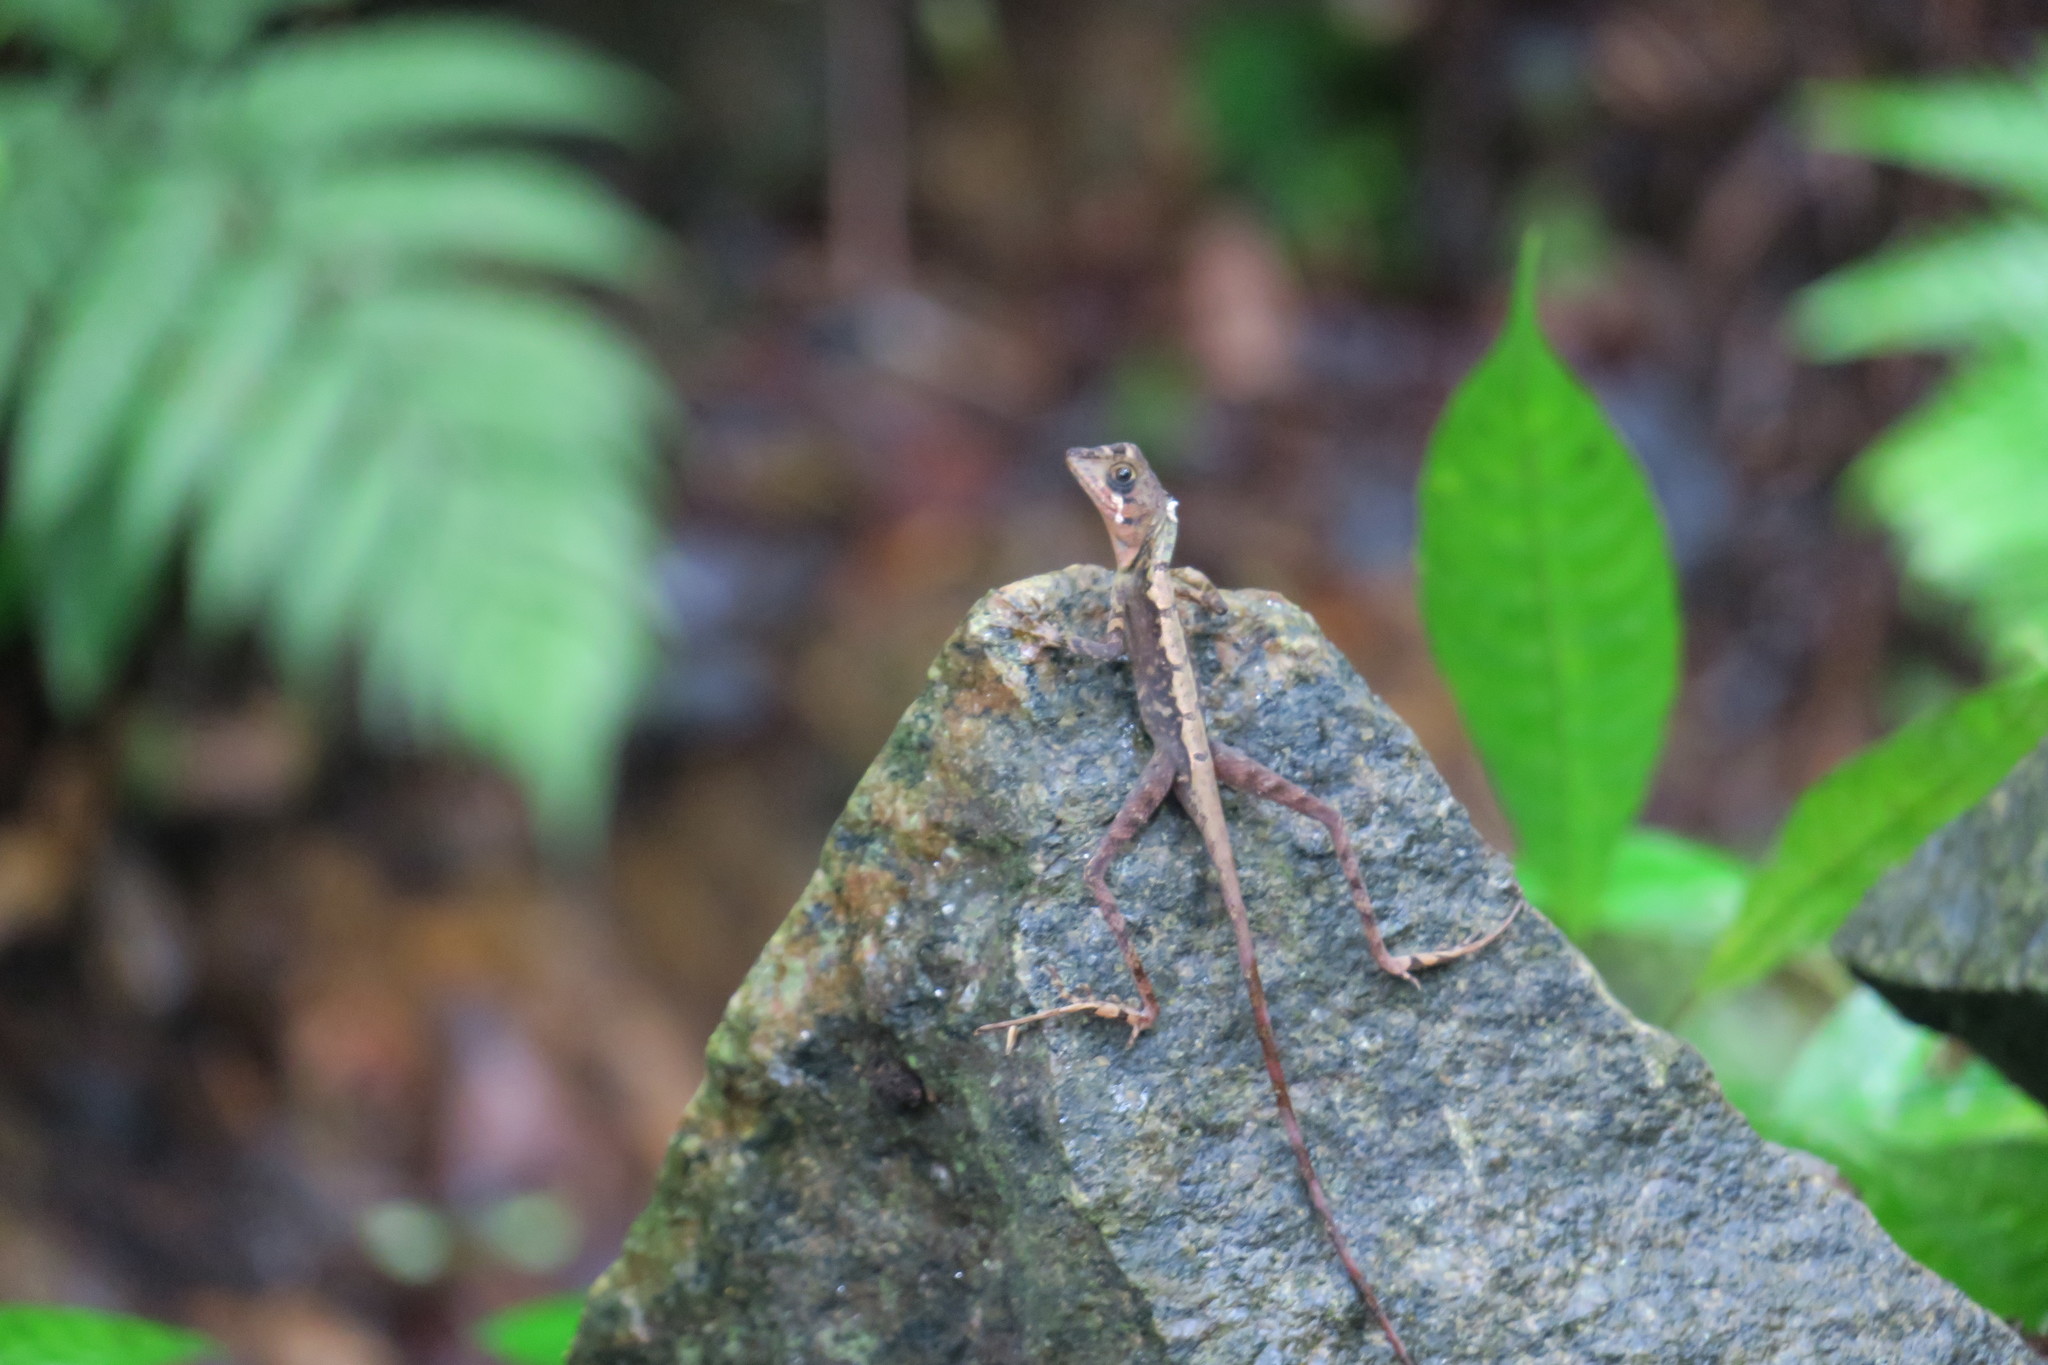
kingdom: Animalia
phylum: Chordata
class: Squamata
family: Agamidae
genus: Otocryptis
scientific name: Otocryptis wiegmanni
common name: Wiegmann's agama
